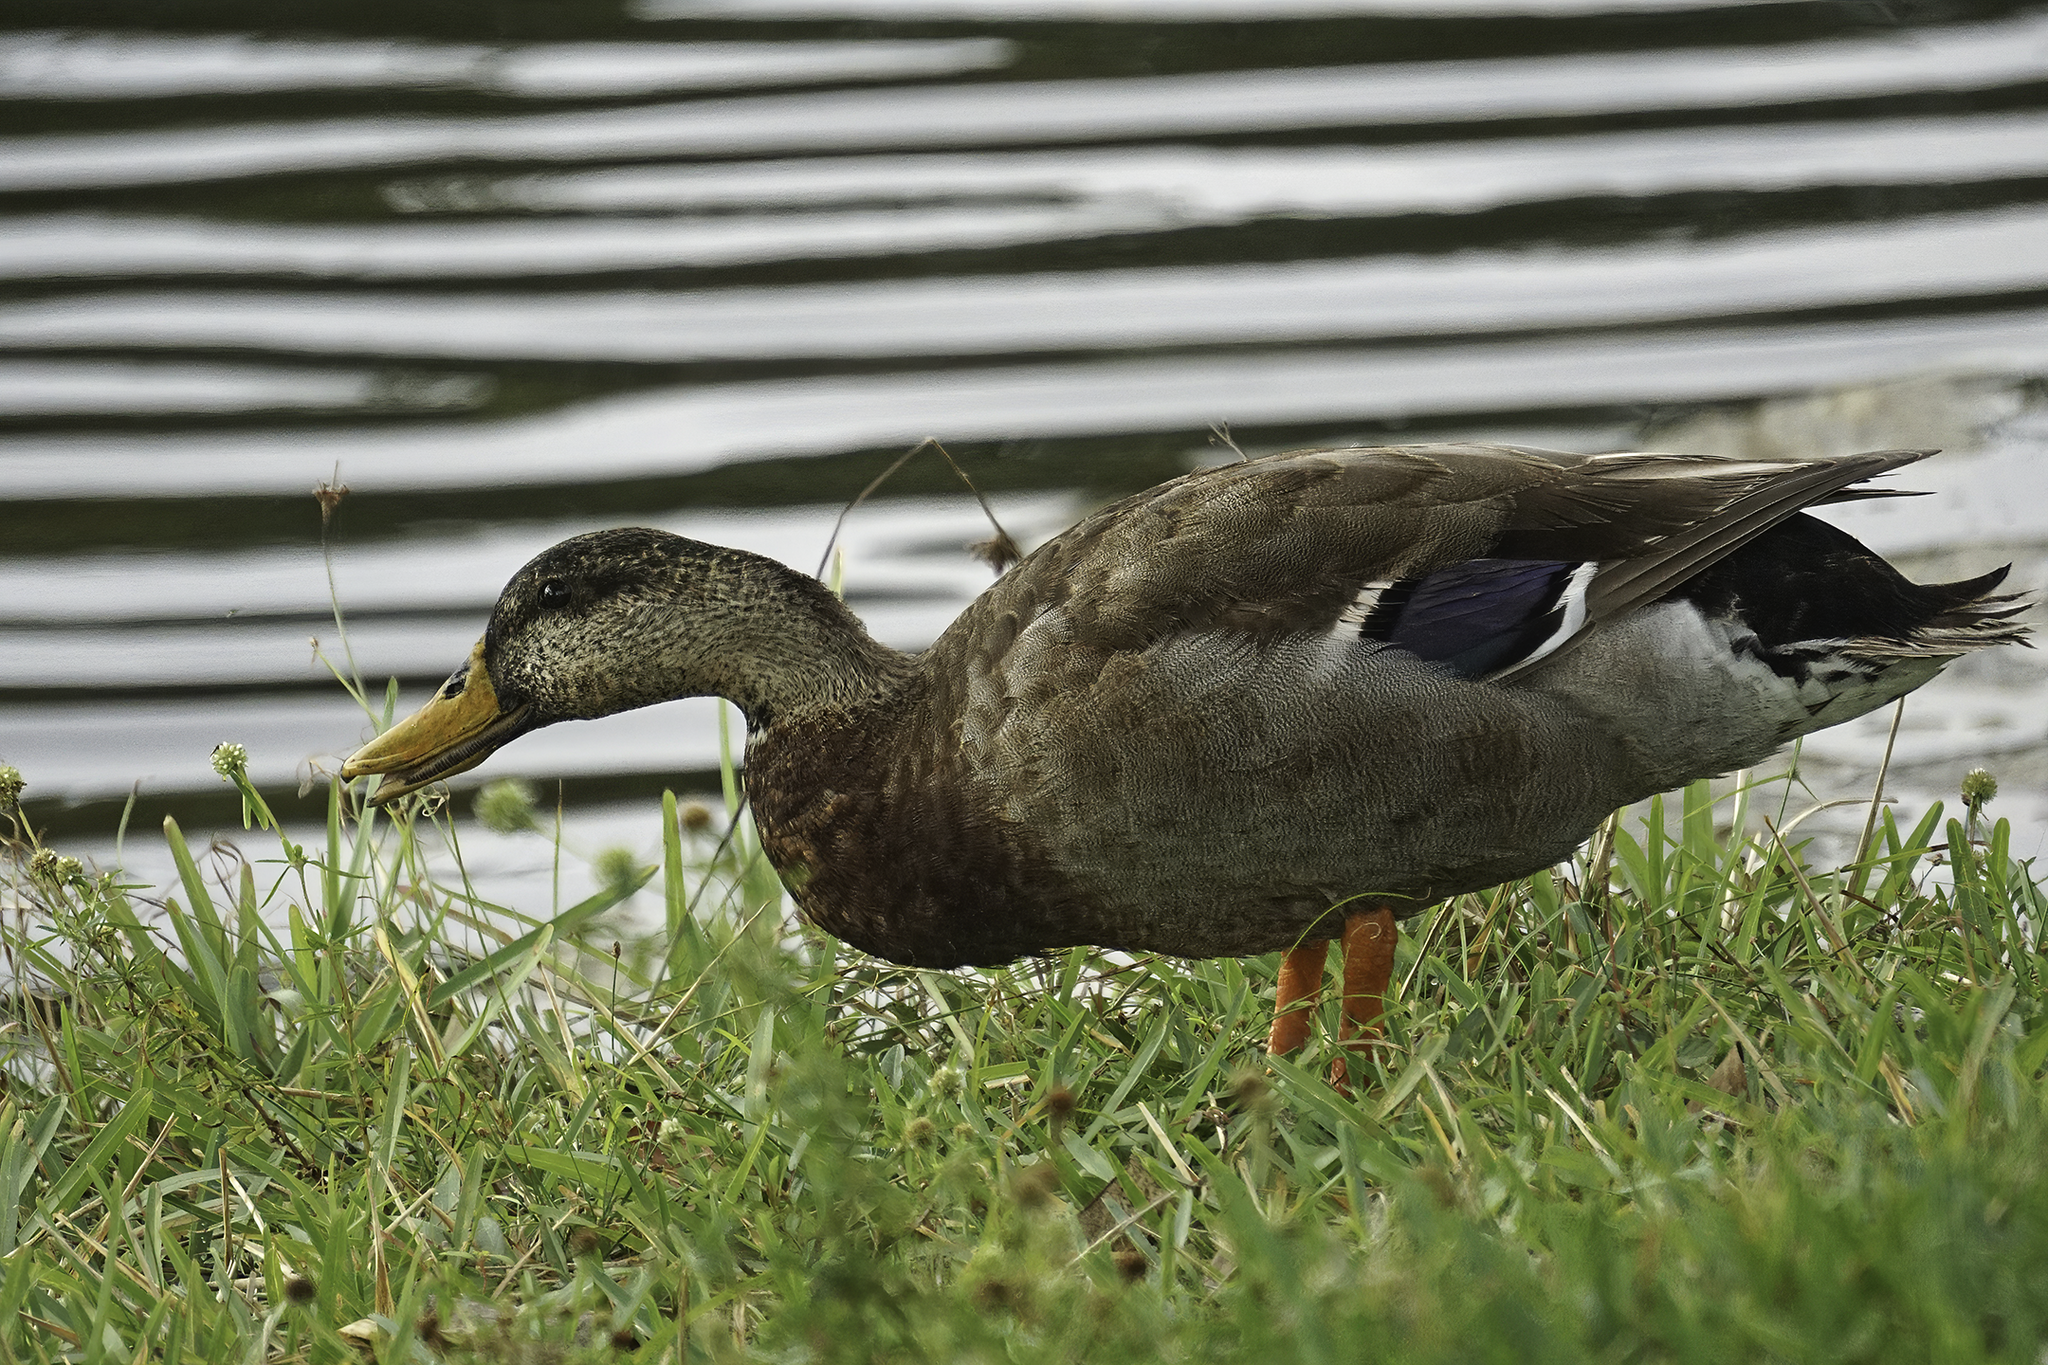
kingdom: Animalia
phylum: Chordata
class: Aves
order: Anseriformes
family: Anatidae
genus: Anas
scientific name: Anas platyrhynchos
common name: Mallard
